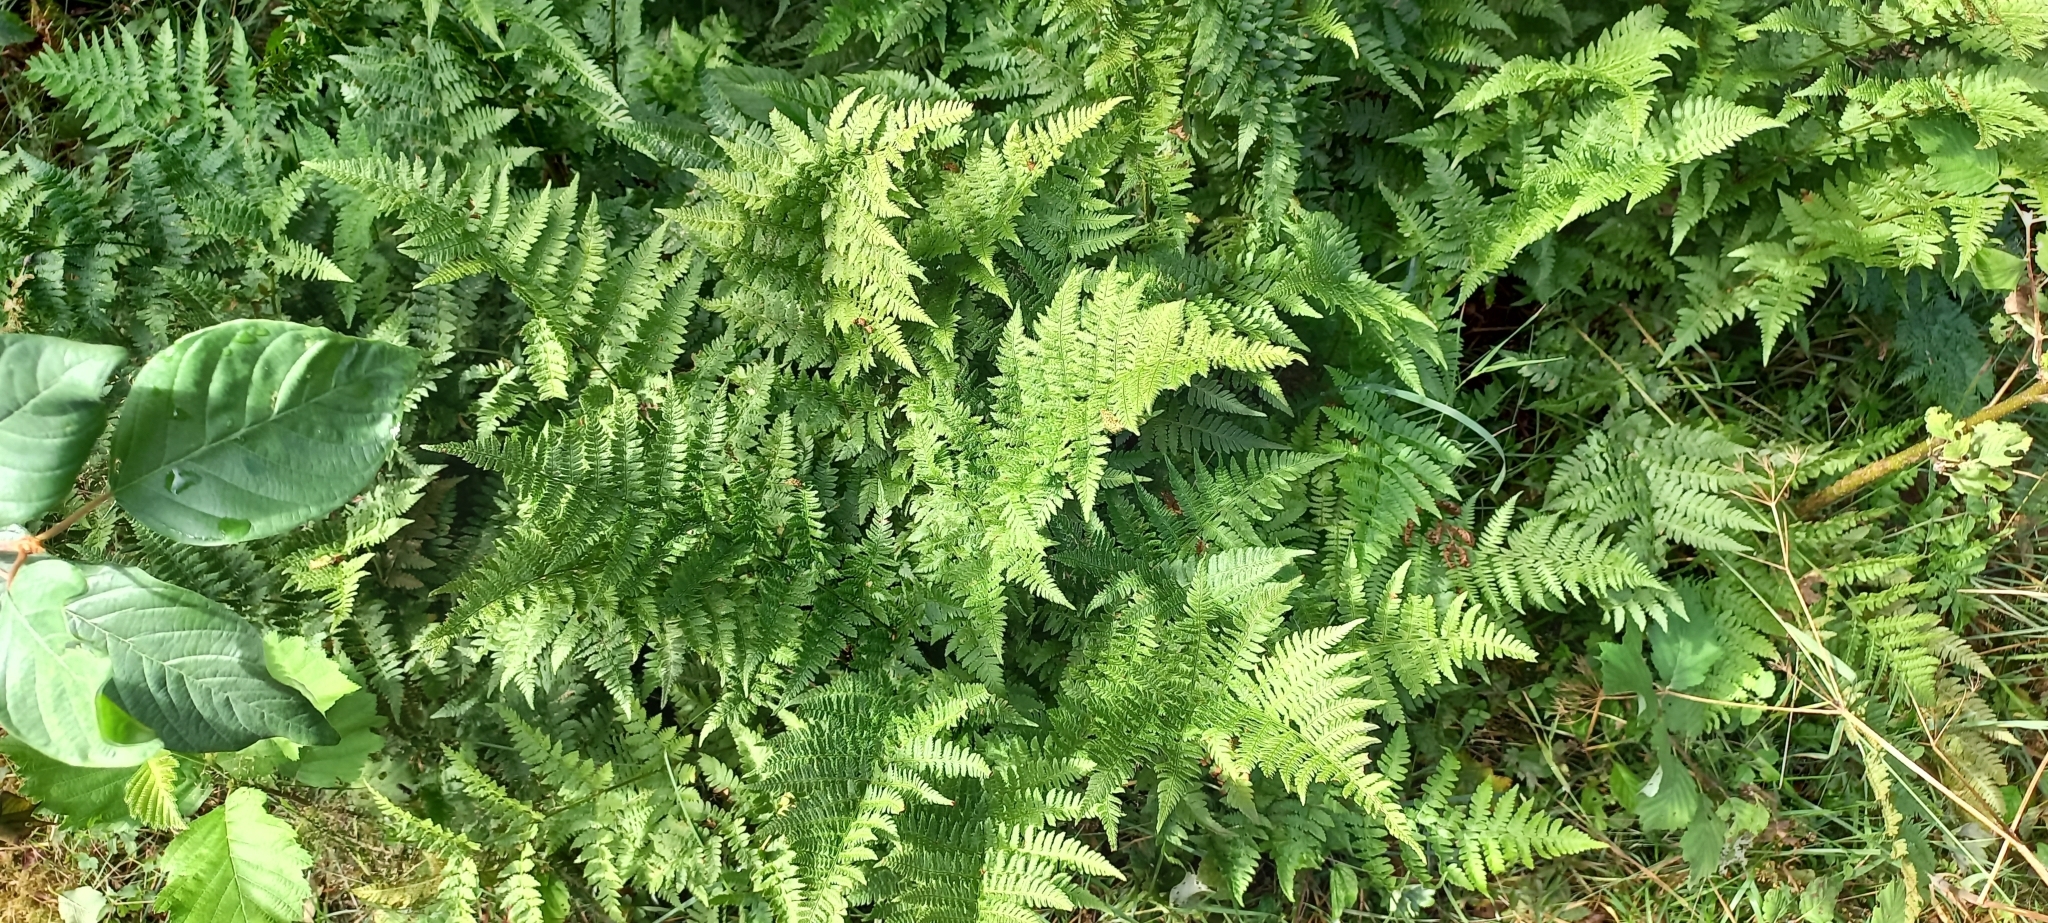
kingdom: Plantae
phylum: Tracheophyta
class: Polypodiopsida
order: Polypodiales
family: Dryopteridaceae
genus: Dryopteris
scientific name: Dryopteris carthusiana
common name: Narrow buckler-fern
